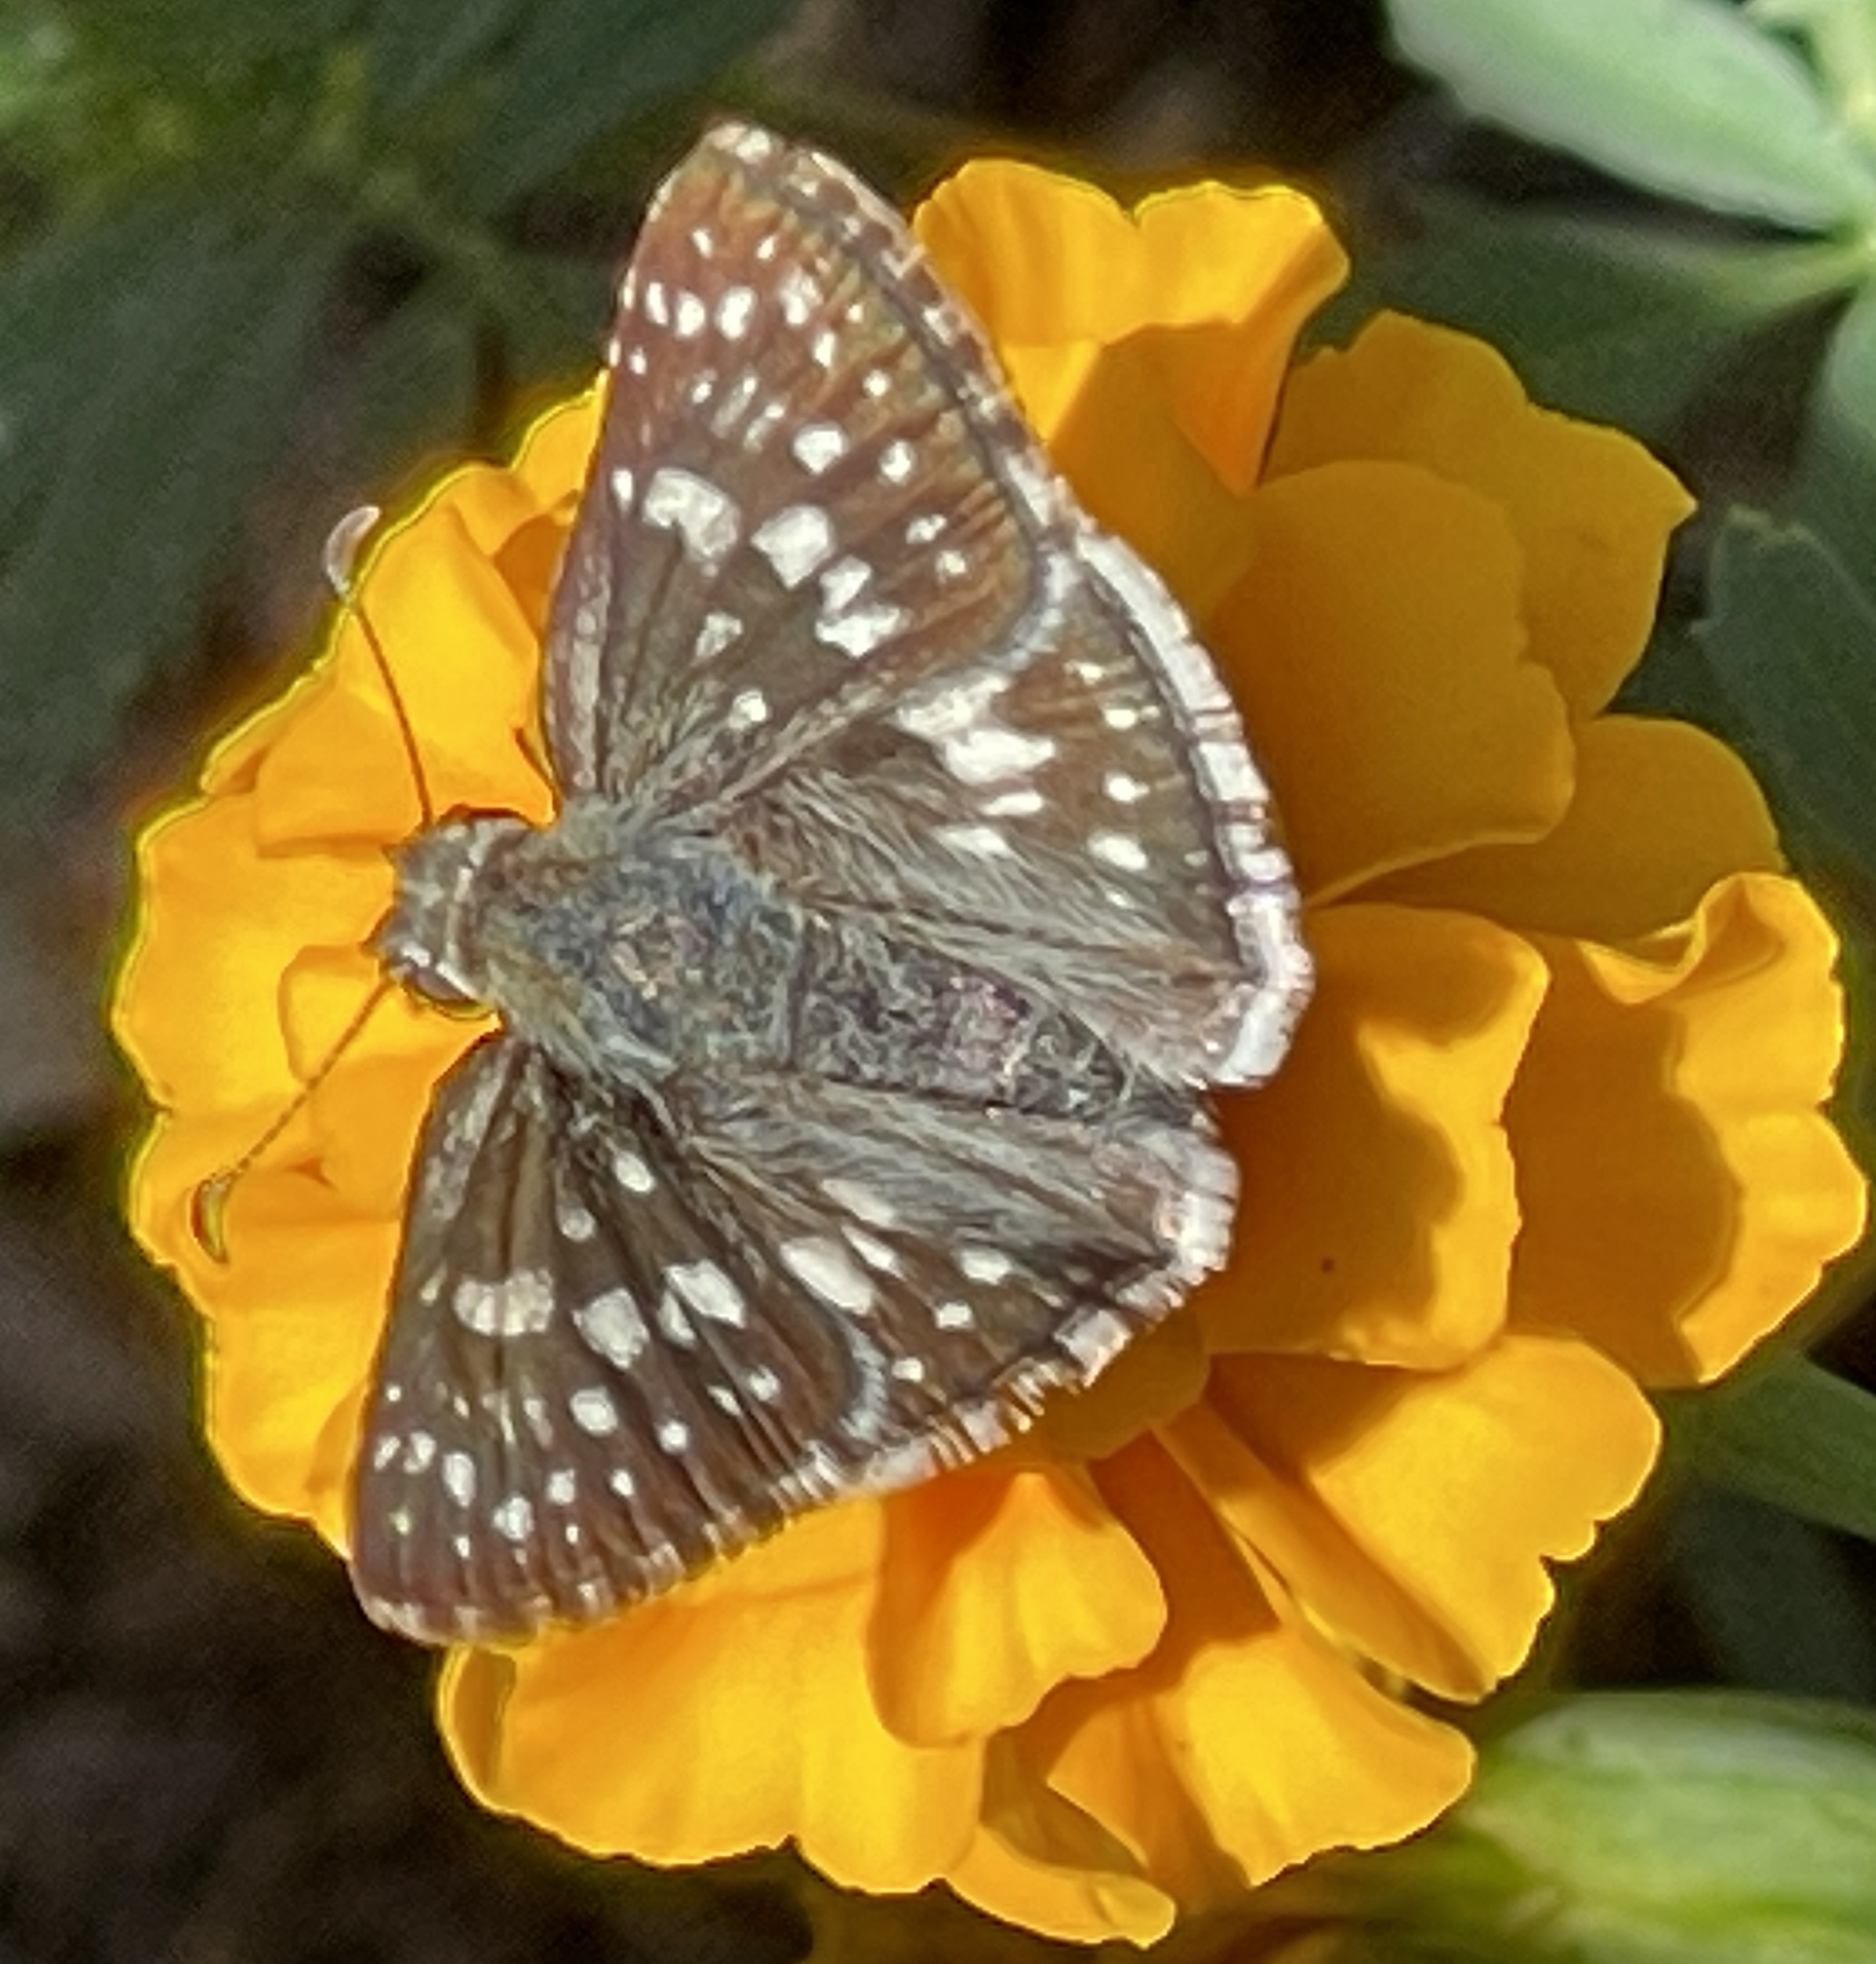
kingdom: Animalia
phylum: Arthropoda
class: Insecta
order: Lepidoptera
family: Hesperiidae
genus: Burnsius
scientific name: Burnsius communis
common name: Common checkered-skipper
